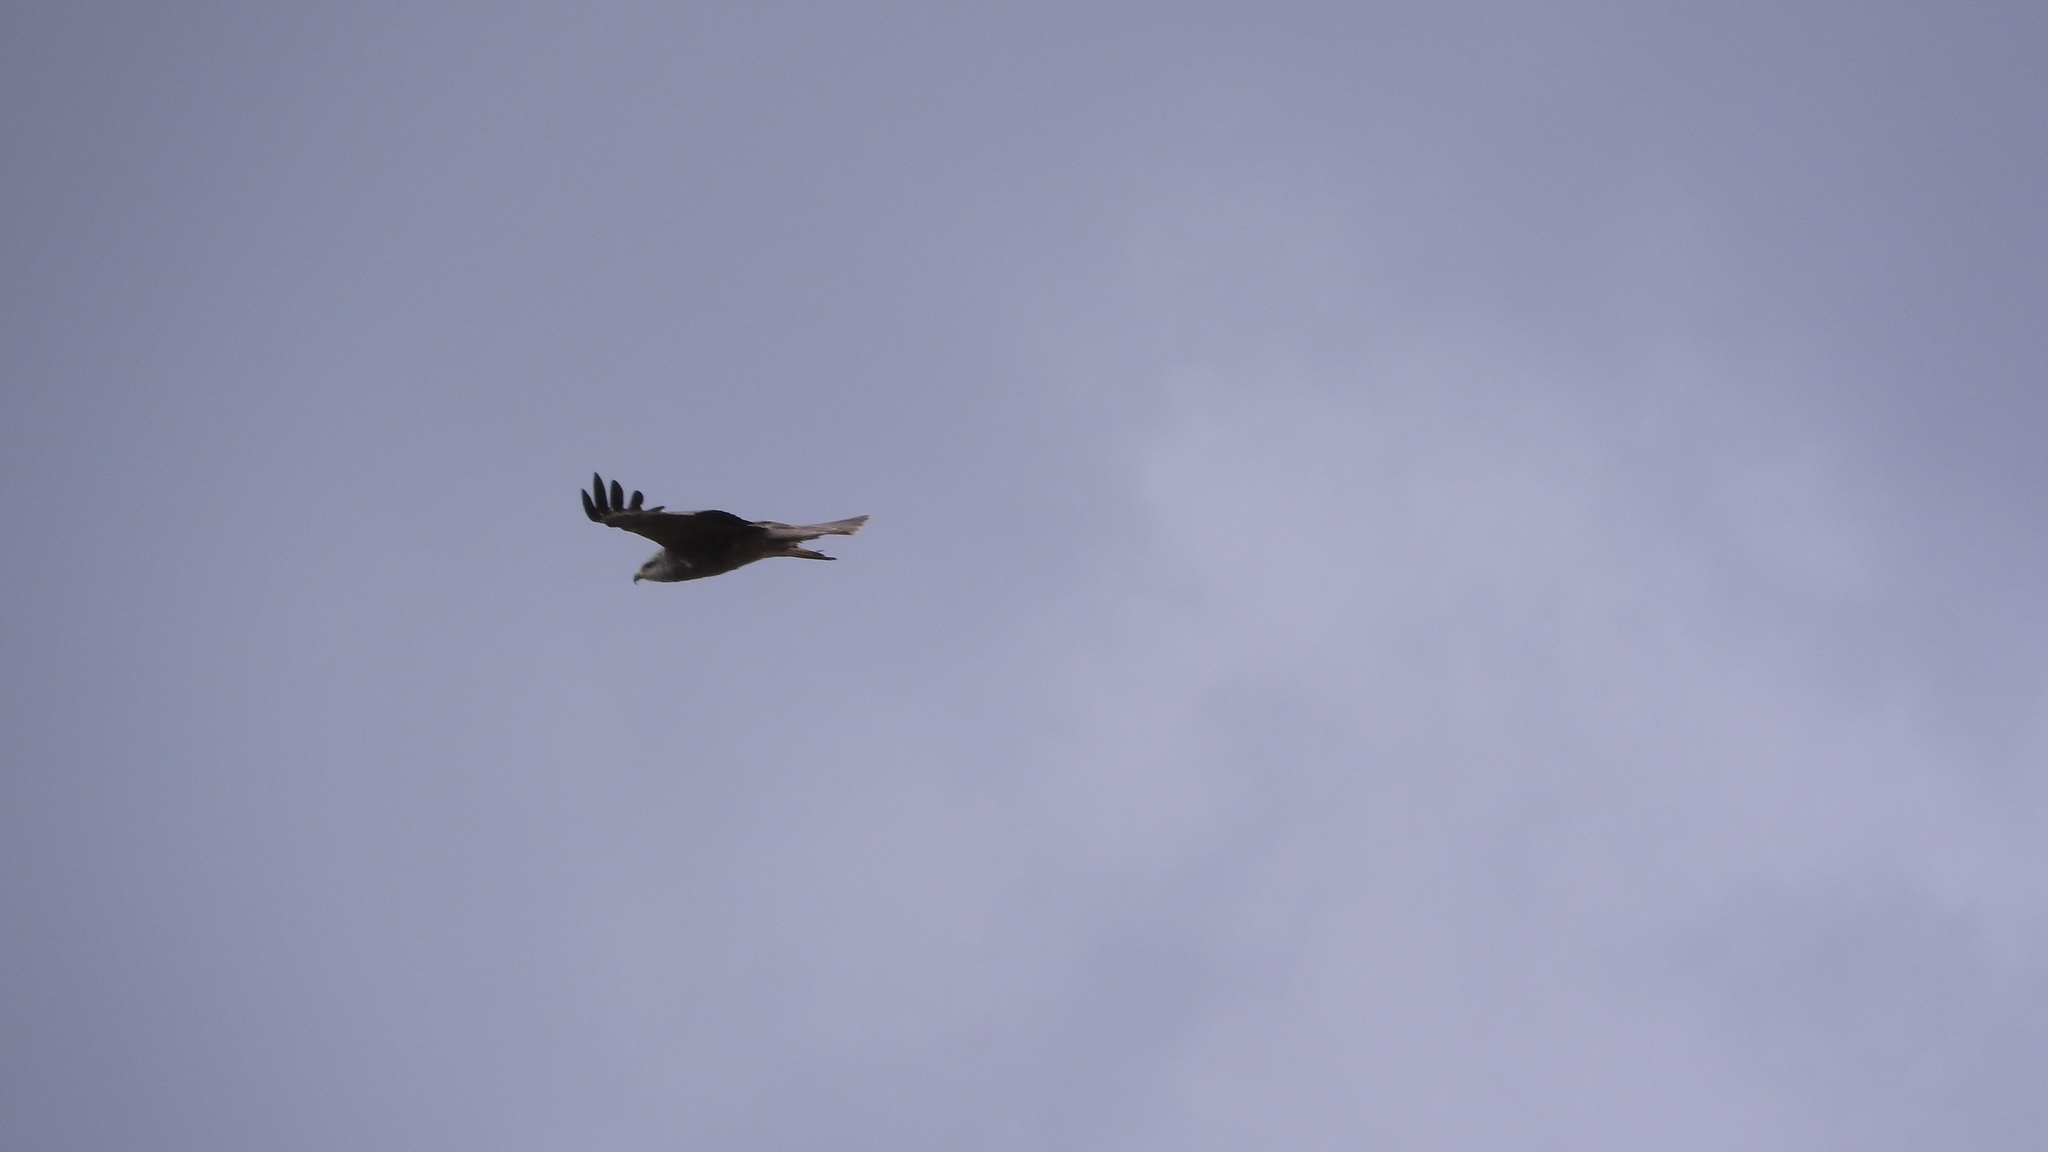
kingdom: Animalia
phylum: Chordata
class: Aves
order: Accipitriformes
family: Accipitridae
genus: Milvus
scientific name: Milvus migrans
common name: Black kite
